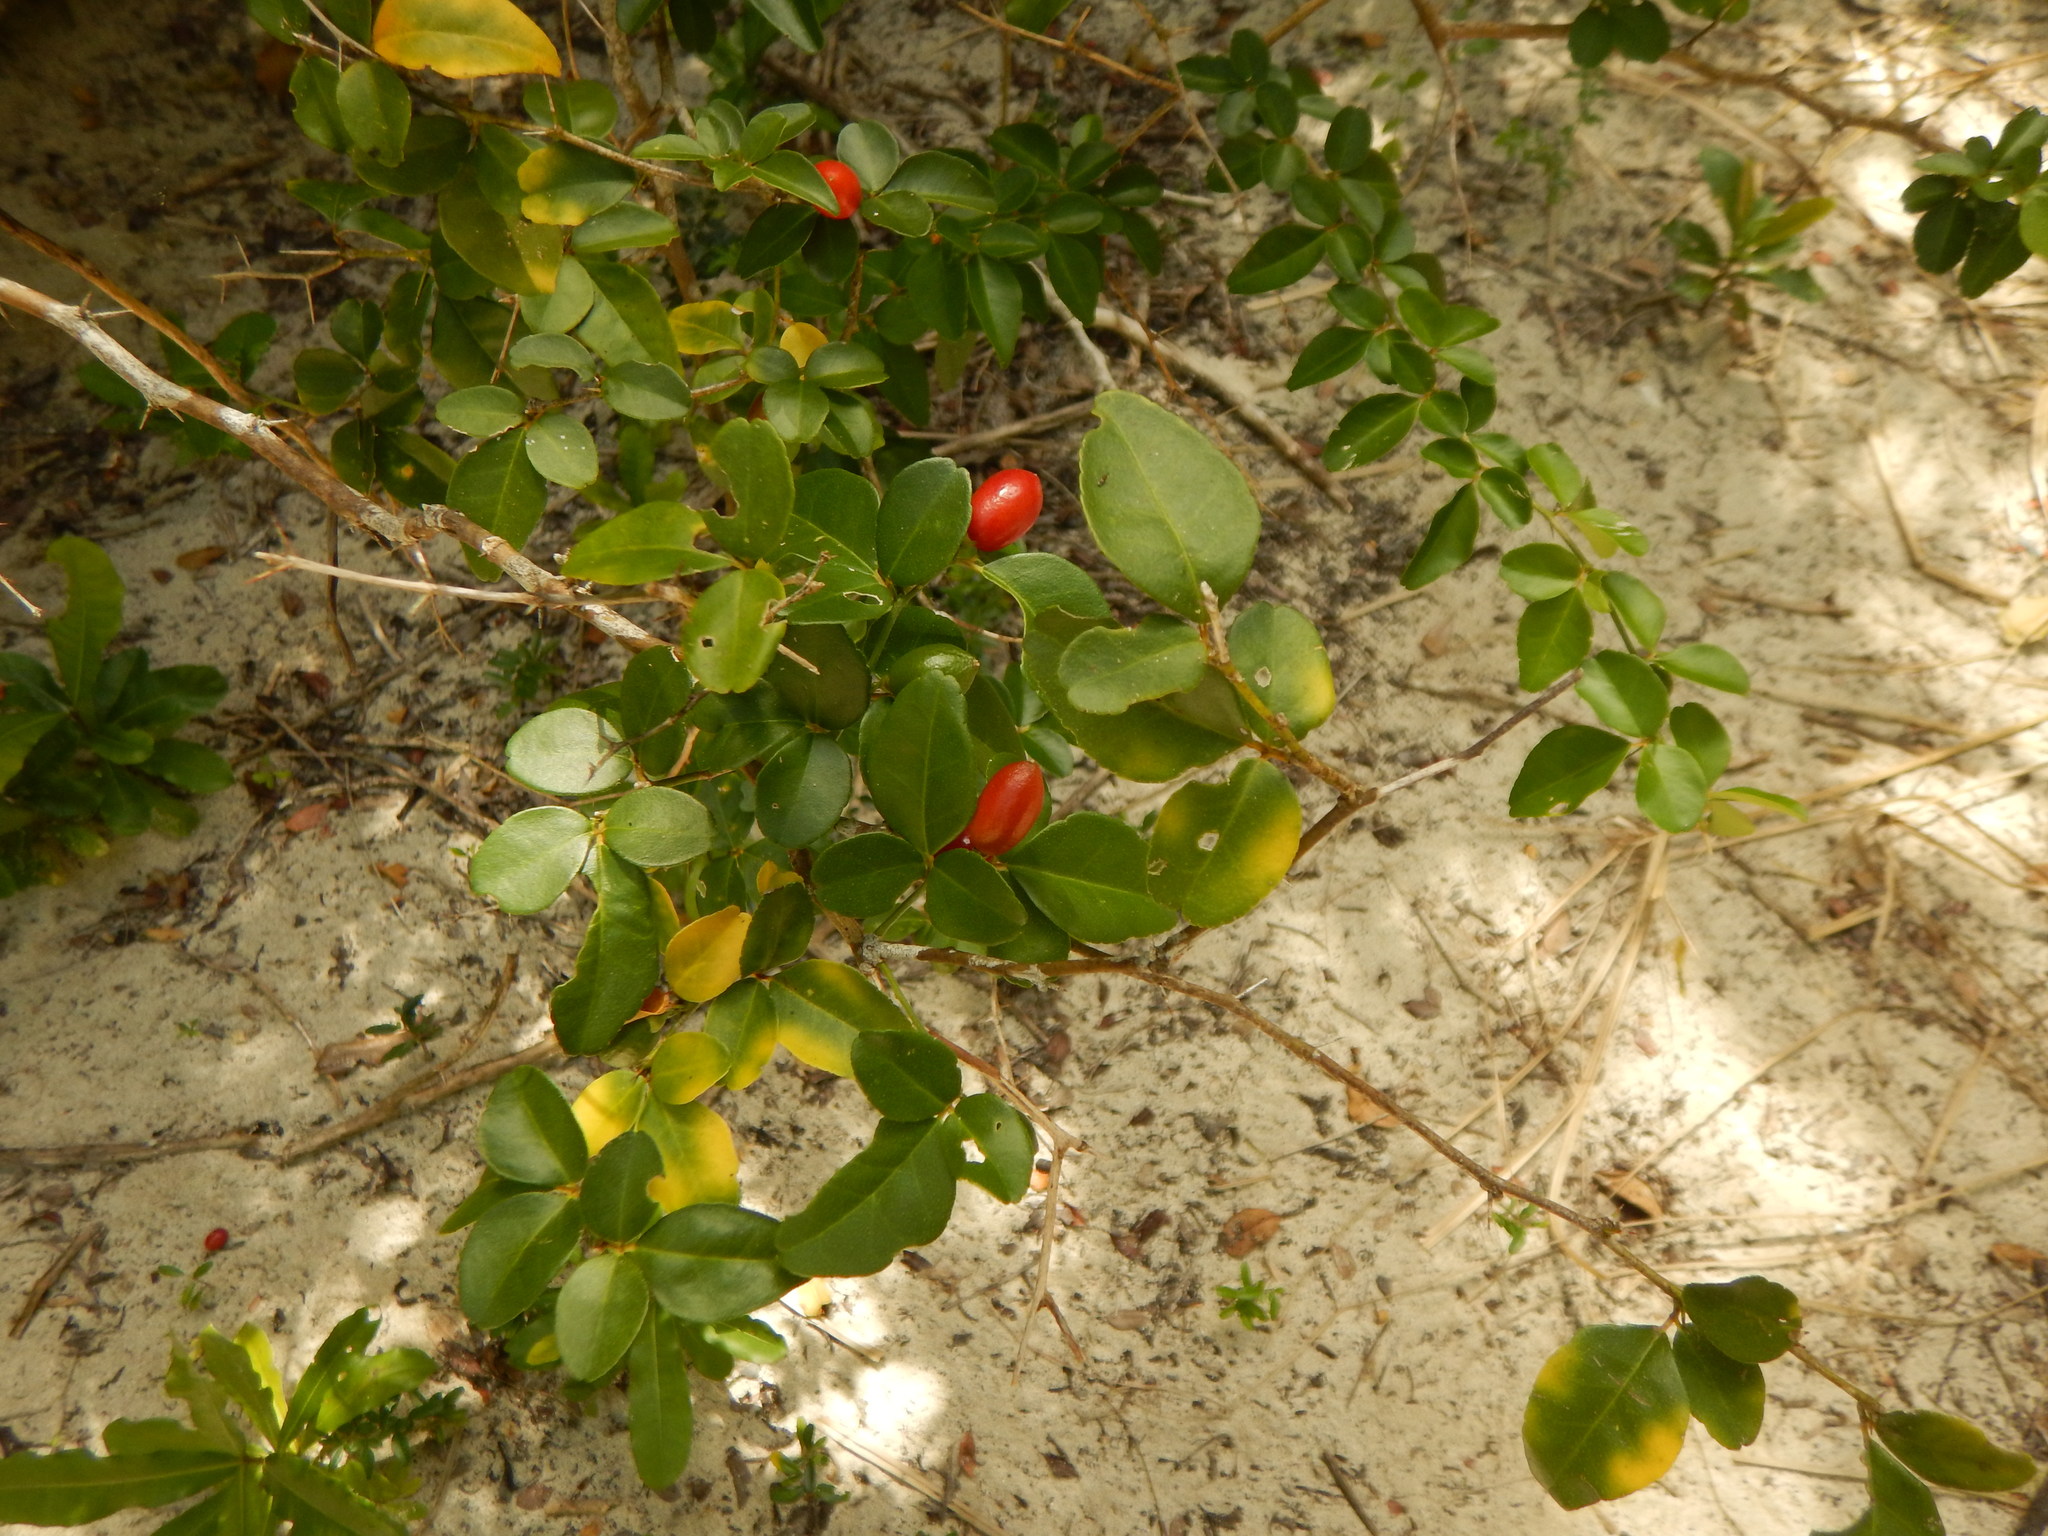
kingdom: Plantae
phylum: Tracheophyta
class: Magnoliopsida
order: Sapindales
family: Rutaceae
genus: Triphasia
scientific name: Triphasia trifolia
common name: Limeberry
